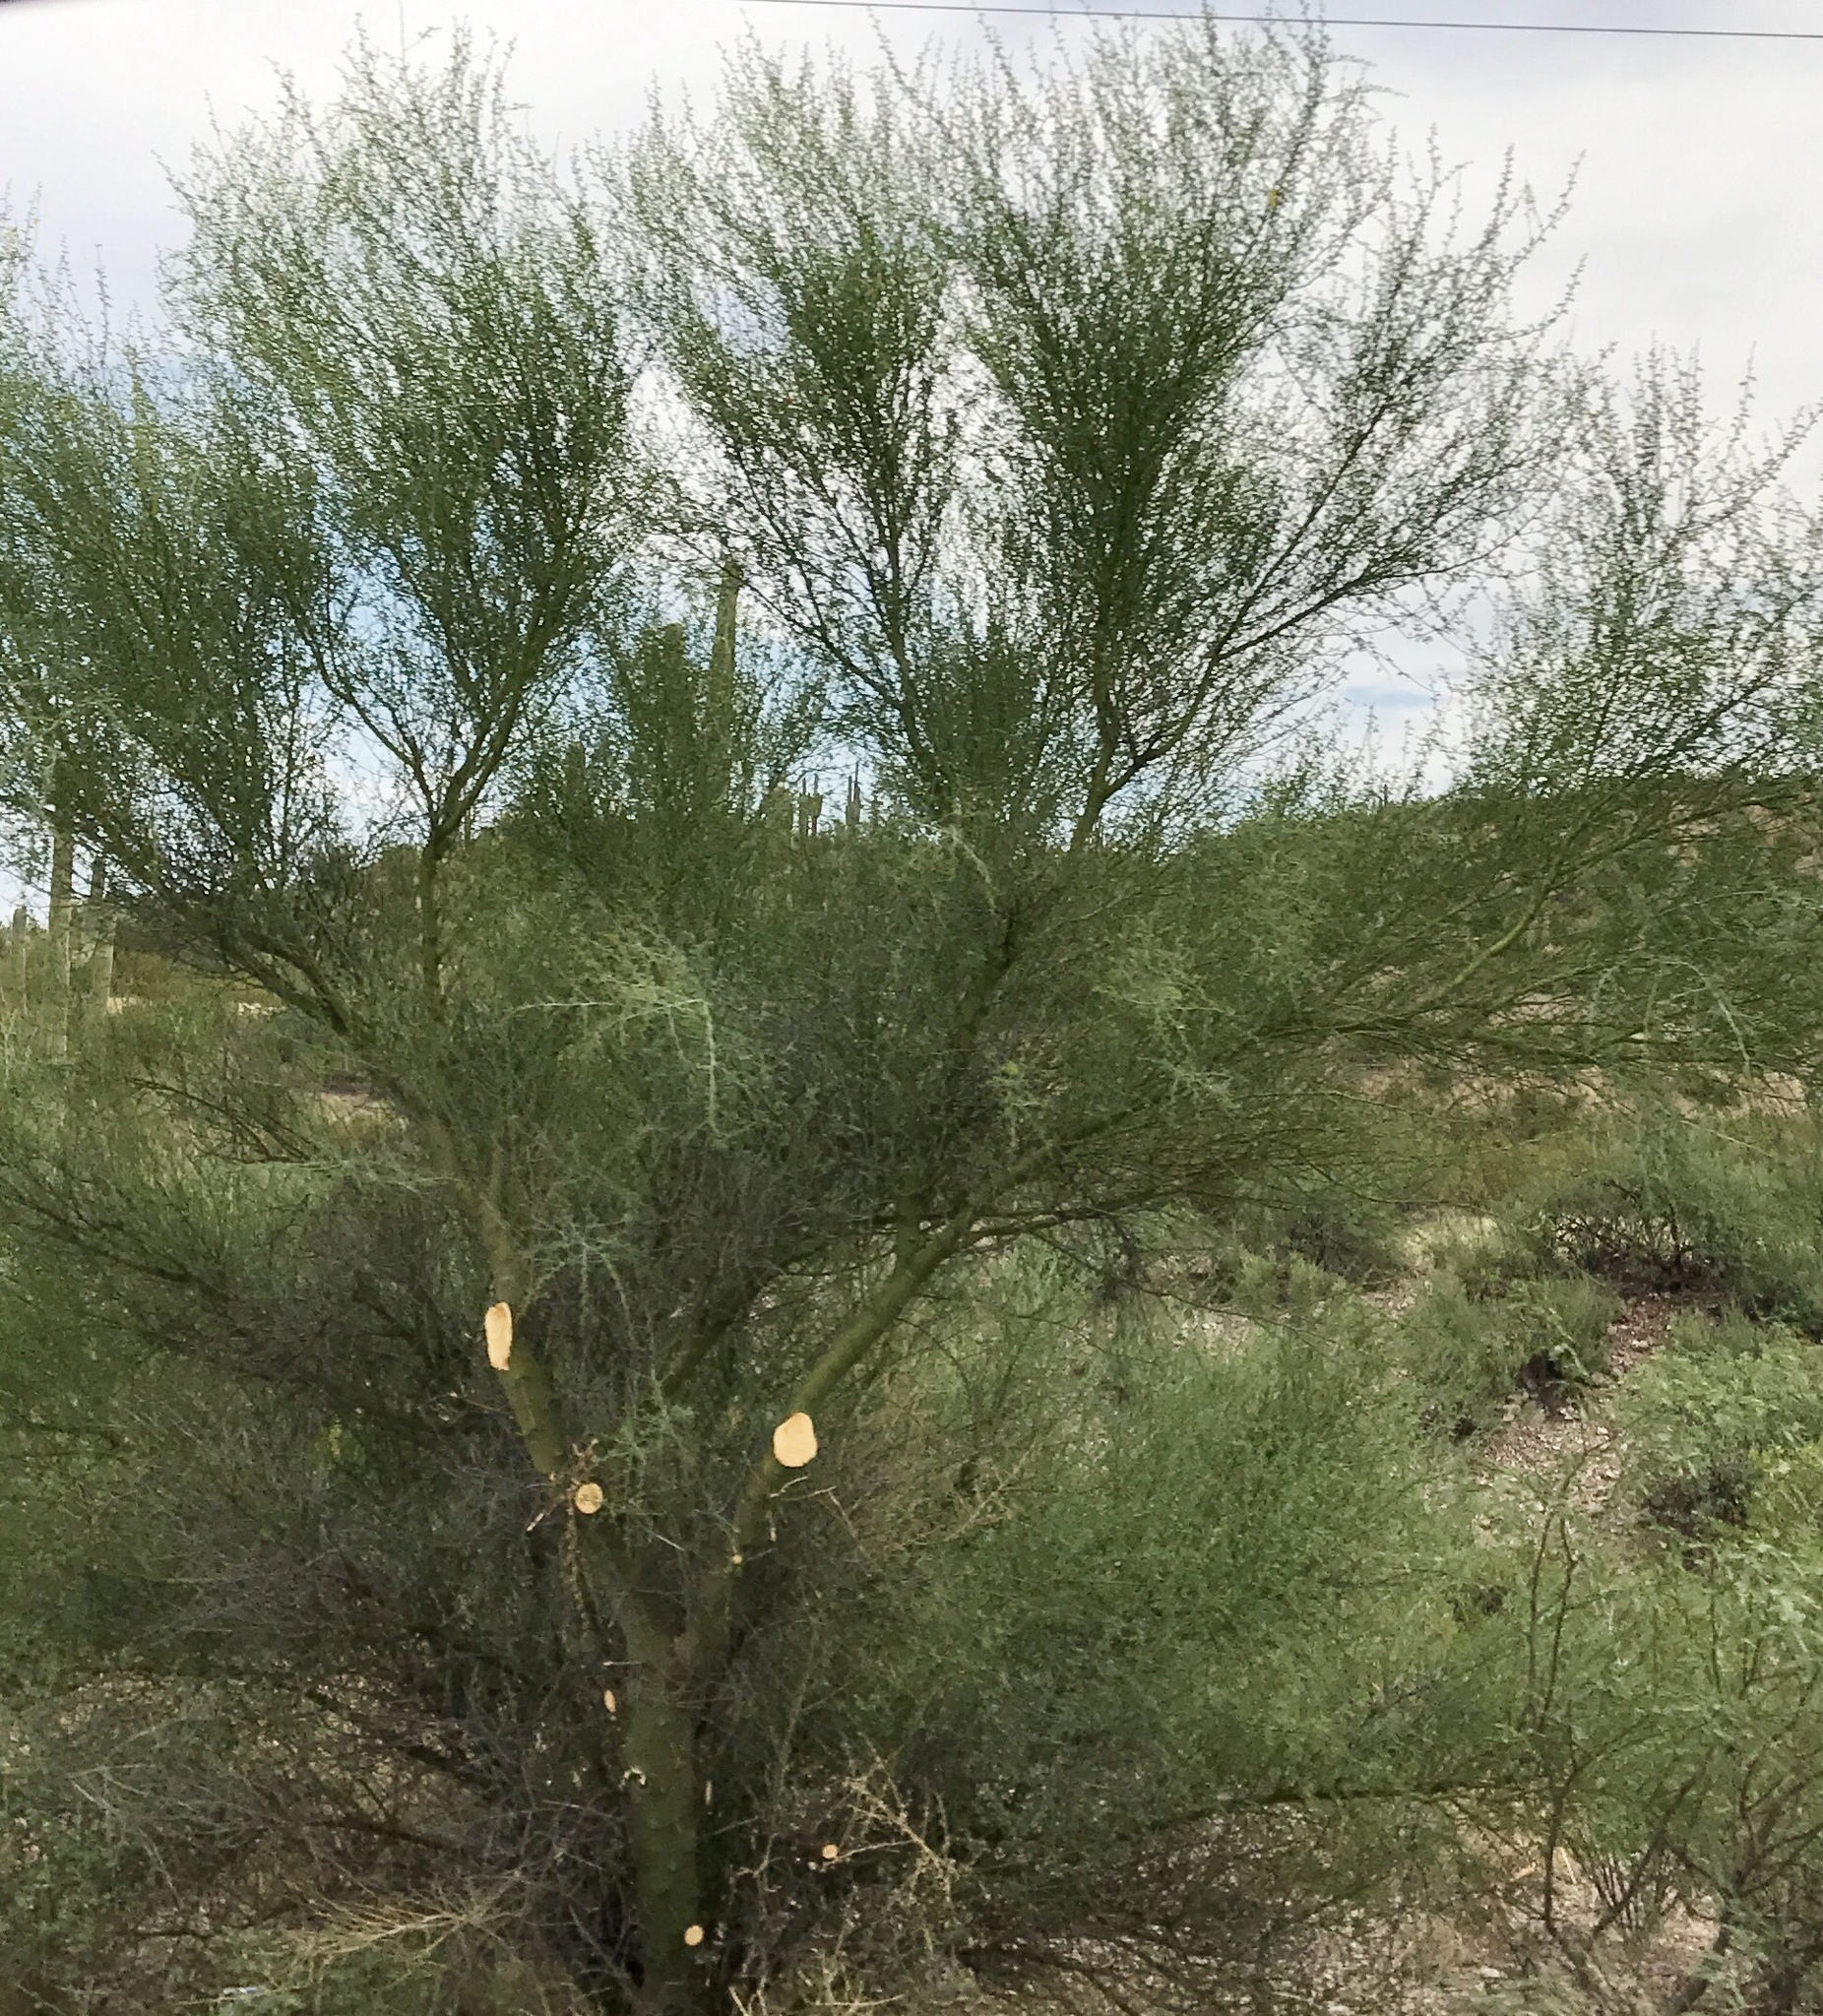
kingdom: Plantae
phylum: Tracheophyta
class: Magnoliopsida
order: Fabales
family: Fabaceae
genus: Parkinsonia
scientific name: Parkinsonia florida
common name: Blue paloverde
